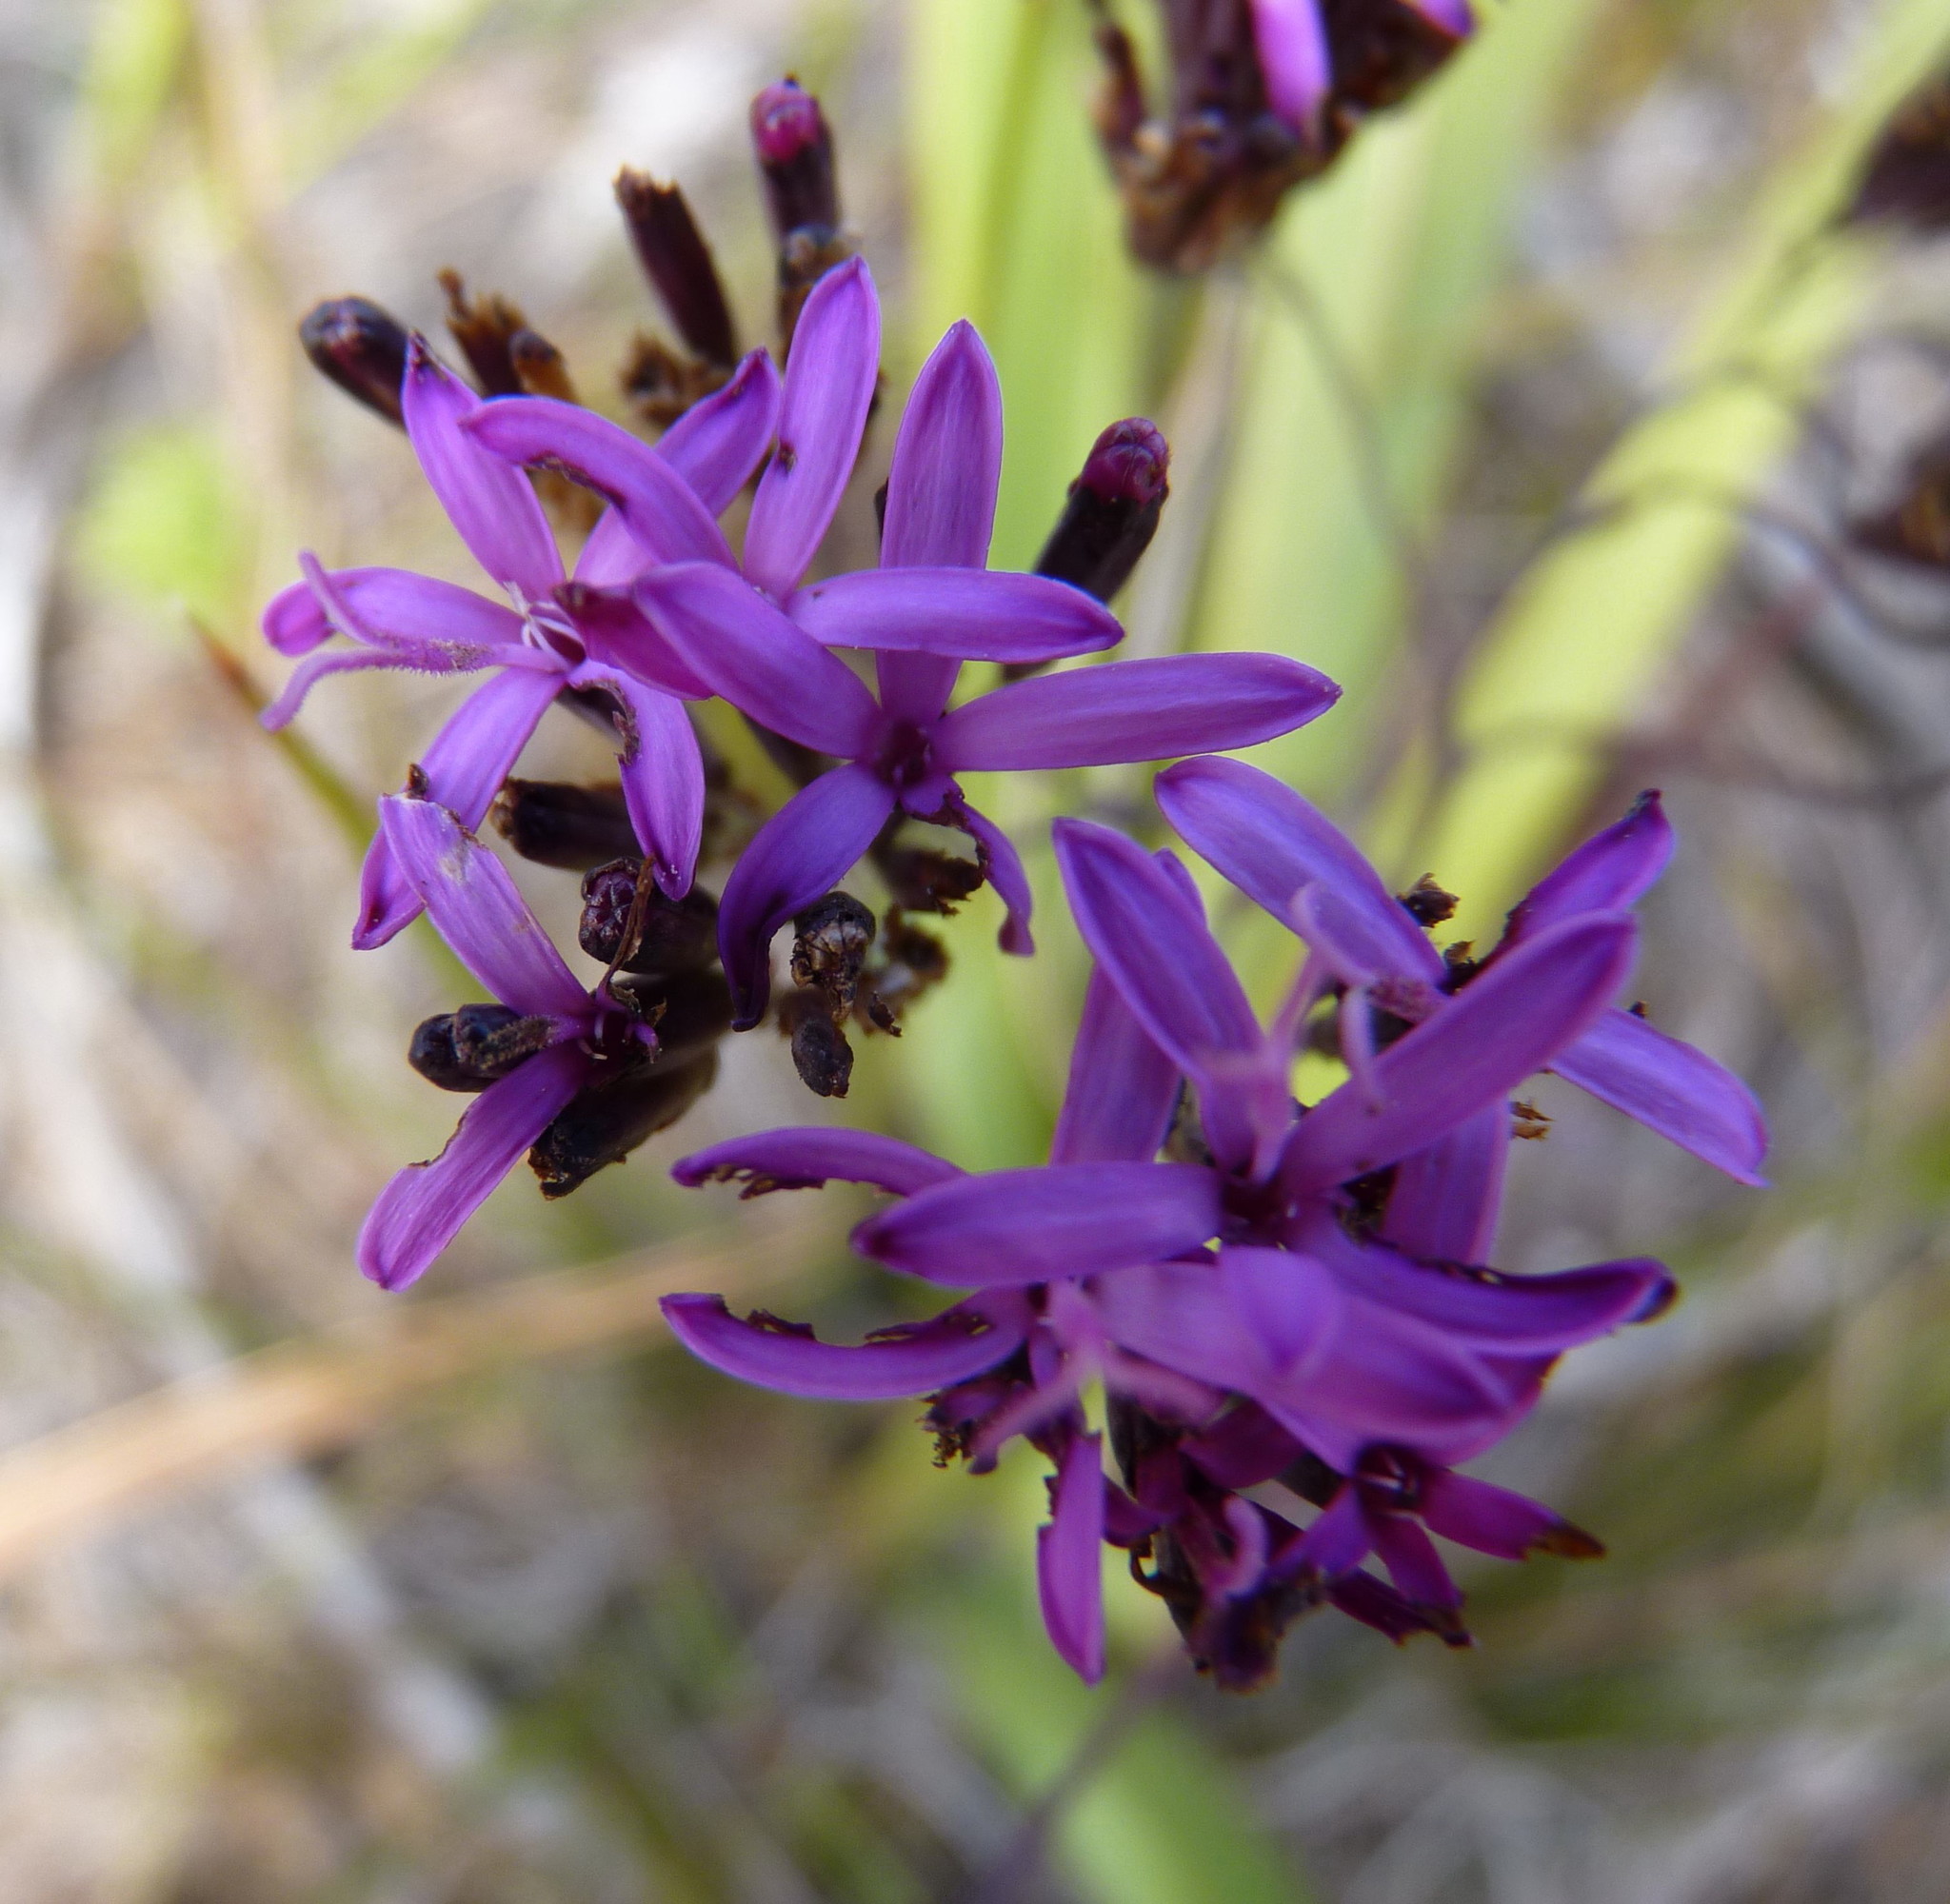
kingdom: Plantae
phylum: Tracheophyta
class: Magnoliopsida
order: Asterales
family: Asteraceae
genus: Corymbium
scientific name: Corymbium glabrum
